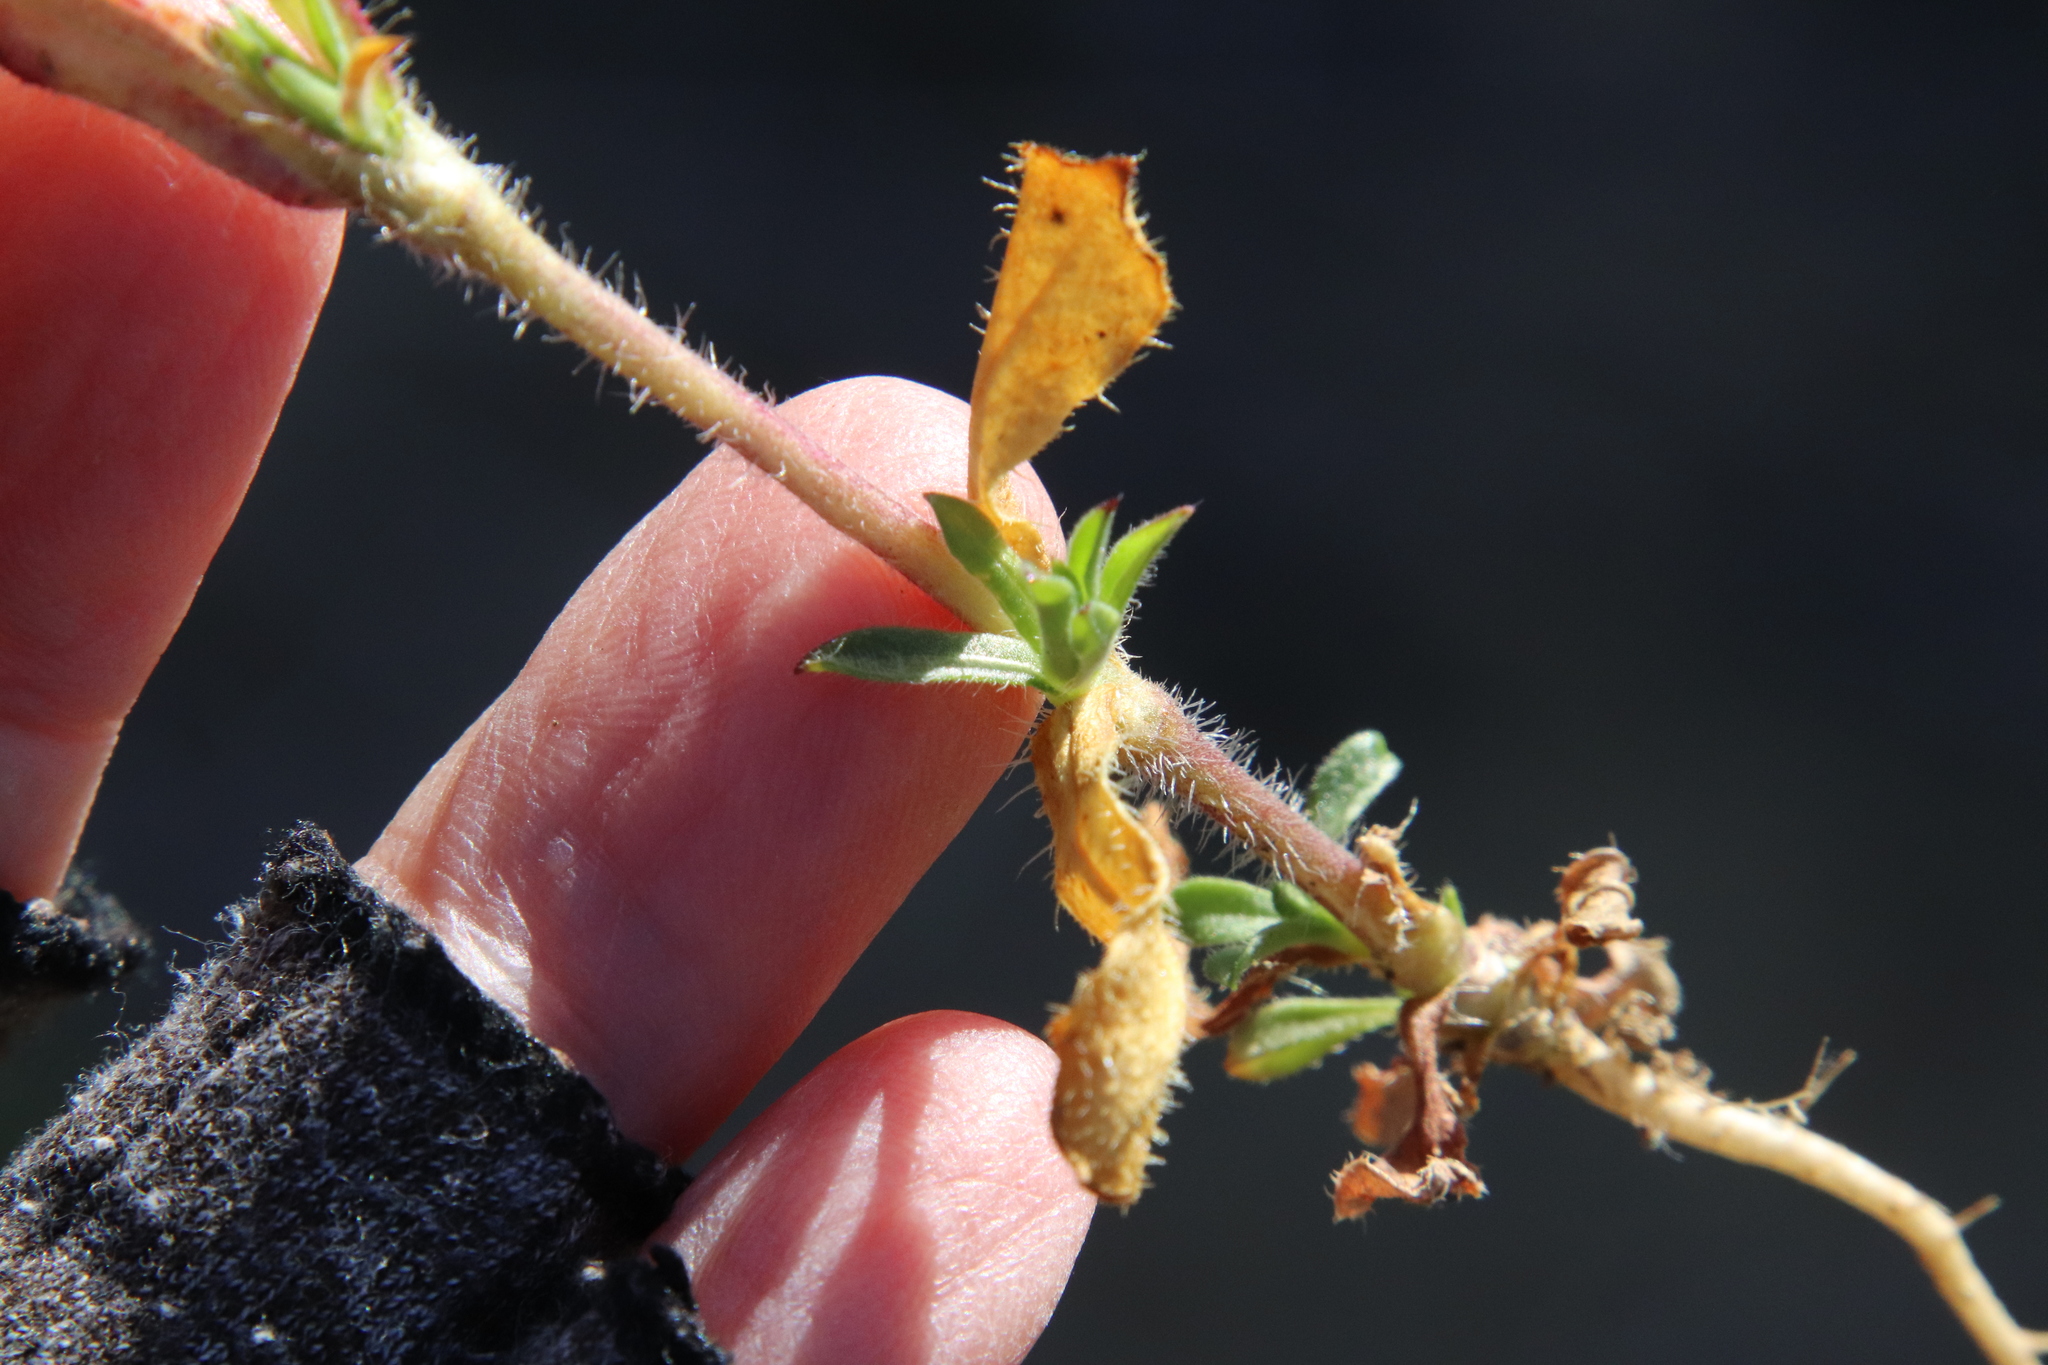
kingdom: Plantae
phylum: Tracheophyta
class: Magnoliopsida
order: Caryophyllales
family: Caryophyllaceae
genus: Silene
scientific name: Silene gallica
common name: Small-flowered catchfly
